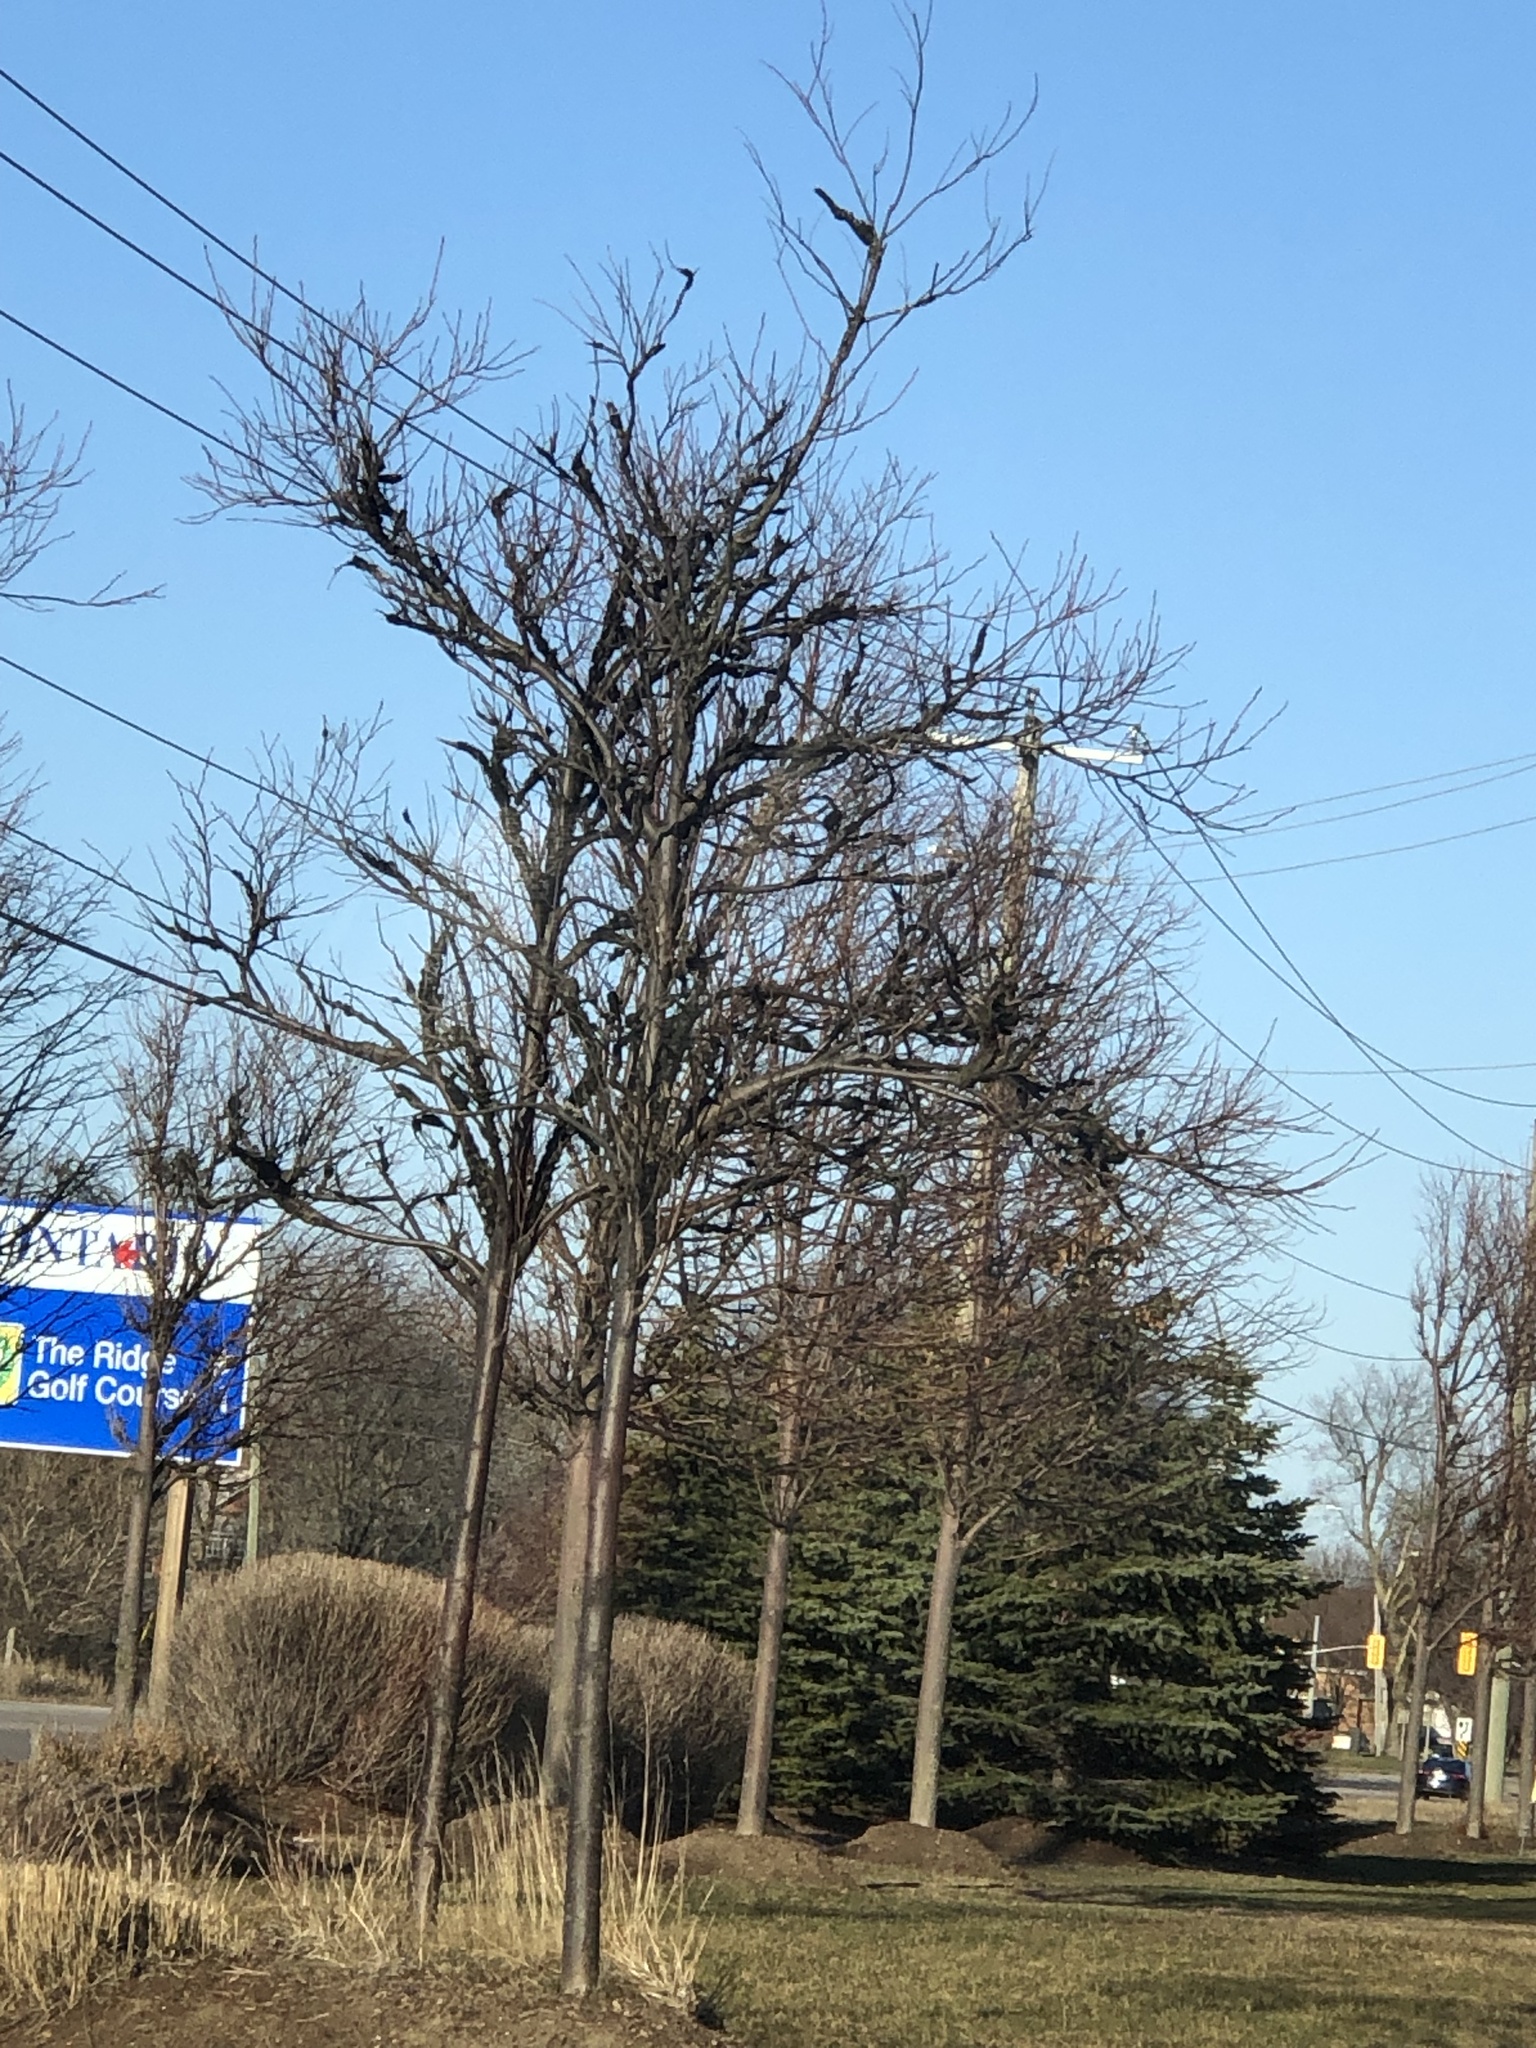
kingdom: Fungi
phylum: Ascomycota
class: Dothideomycetes
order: Venturiales
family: Venturiaceae
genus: Apiosporina
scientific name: Apiosporina morbosa
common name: Black knot
